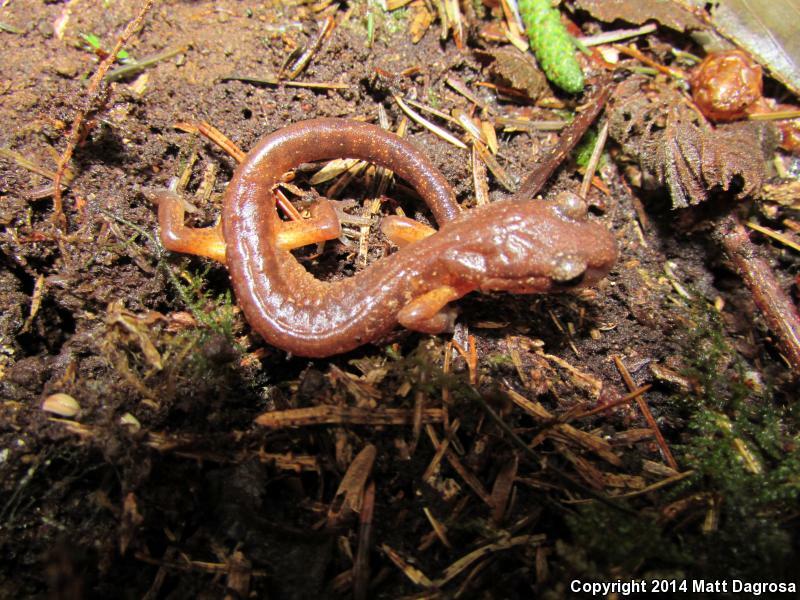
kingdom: Animalia
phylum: Chordata
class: Amphibia
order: Caudata
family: Plethodontidae
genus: Ensatina
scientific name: Ensatina eschscholtzii
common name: Ensatina
